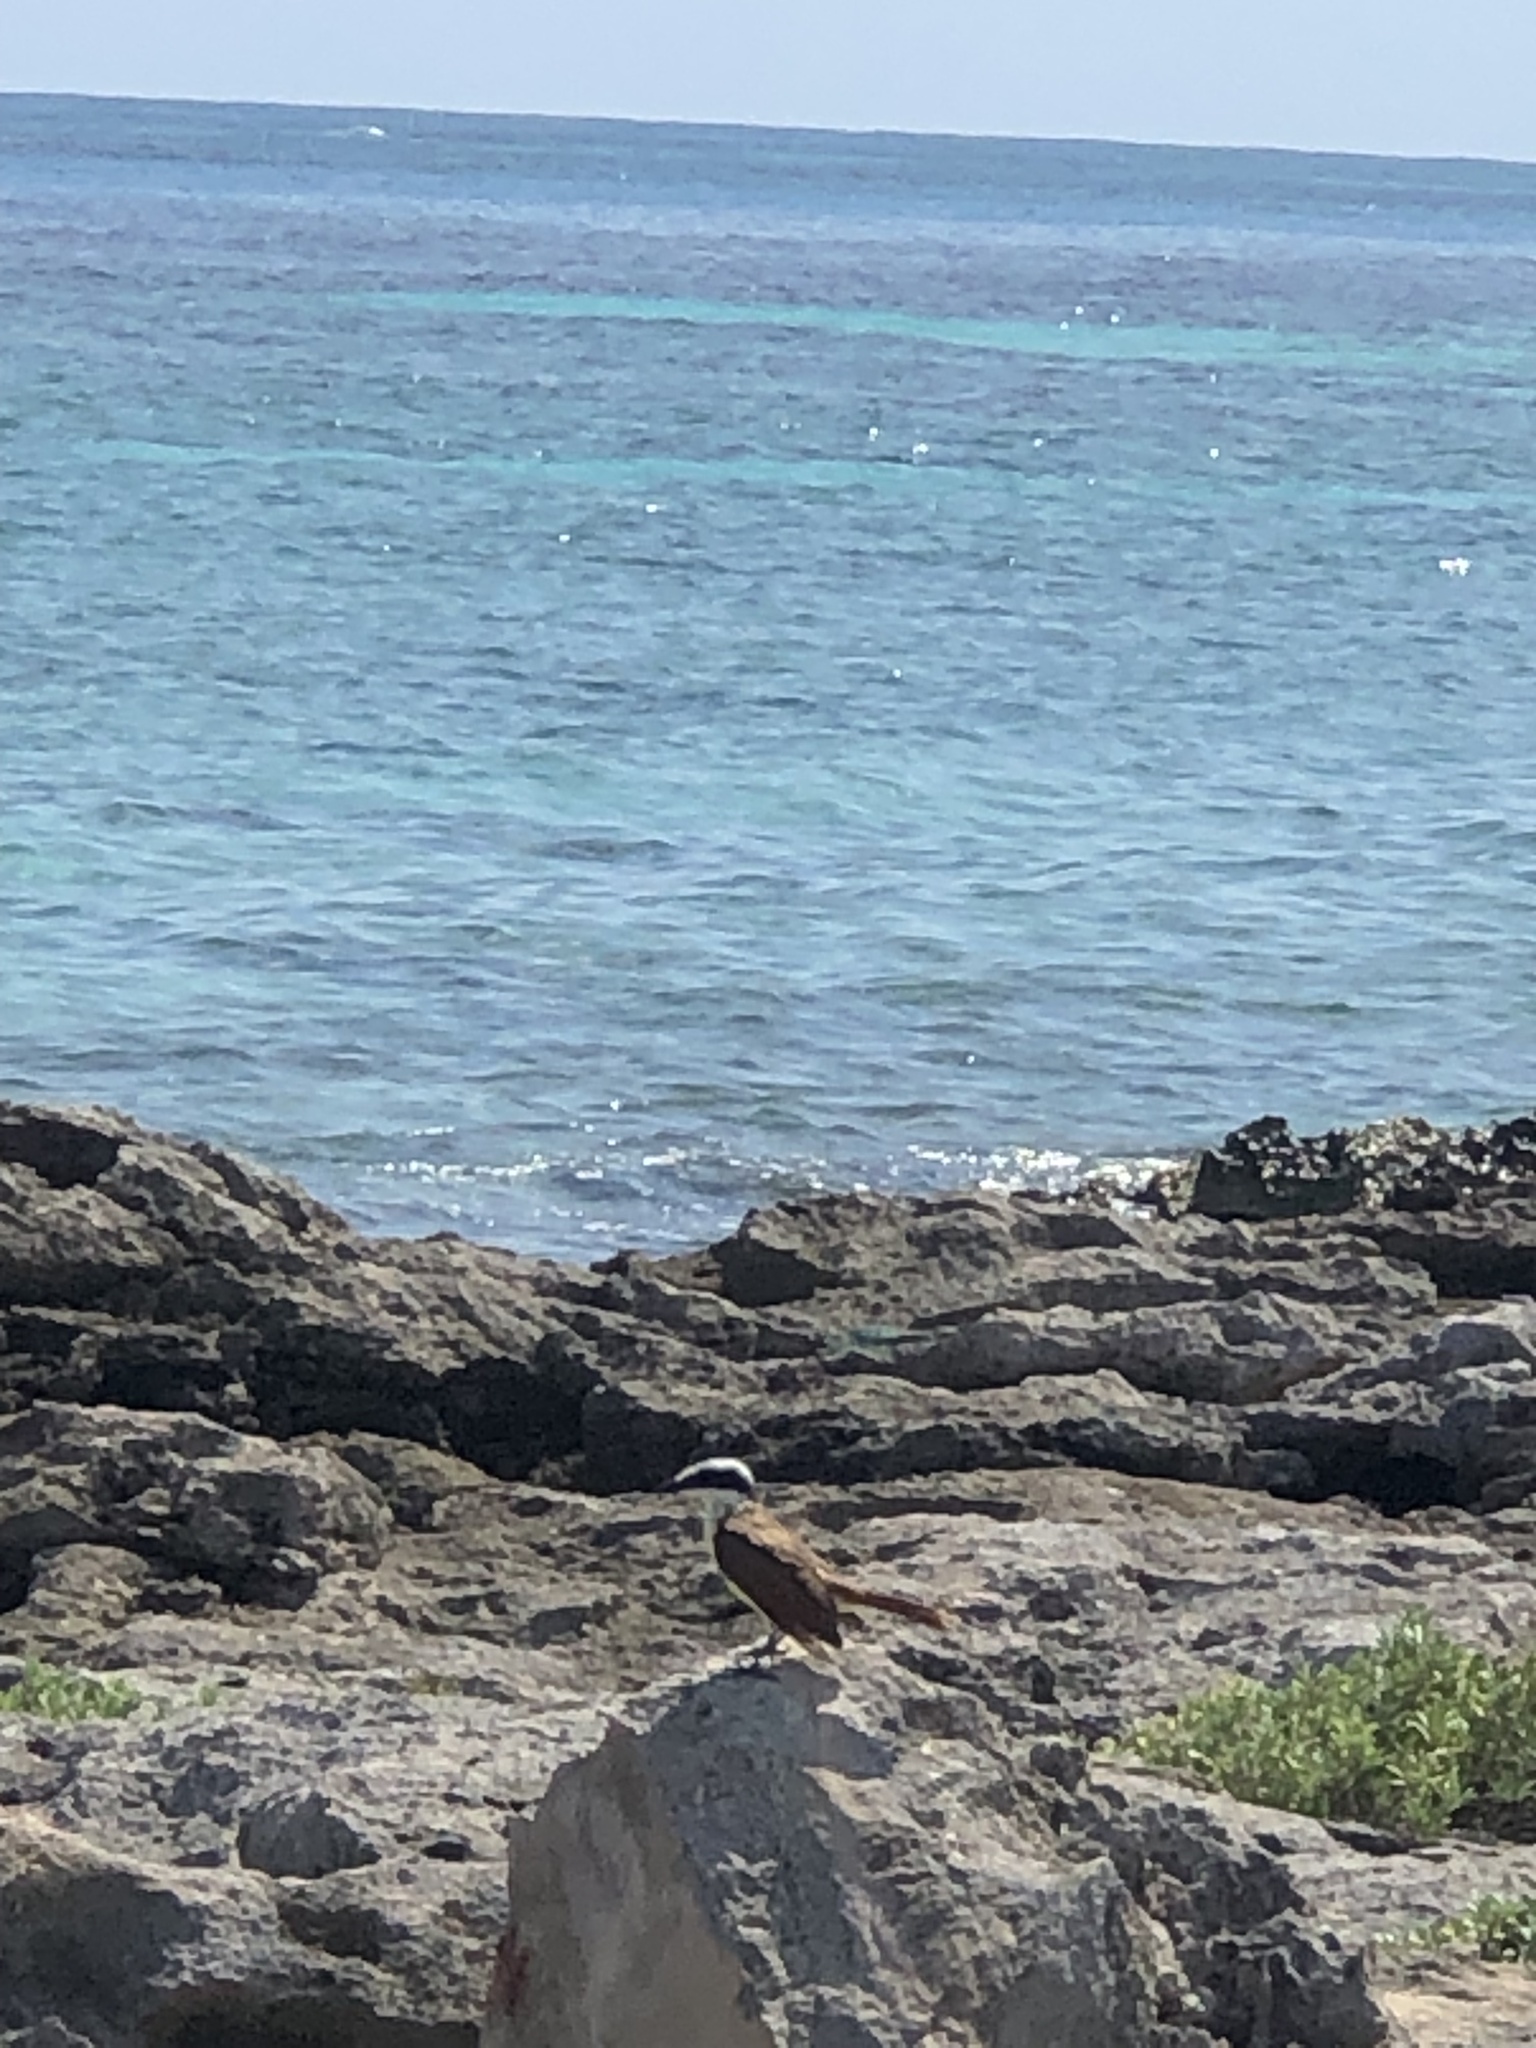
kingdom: Animalia
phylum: Chordata
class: Aves
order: Passeriformes
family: Tyrannidae
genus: Pitangus
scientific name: Pitangus sulphuratus
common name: Great kiskadee
